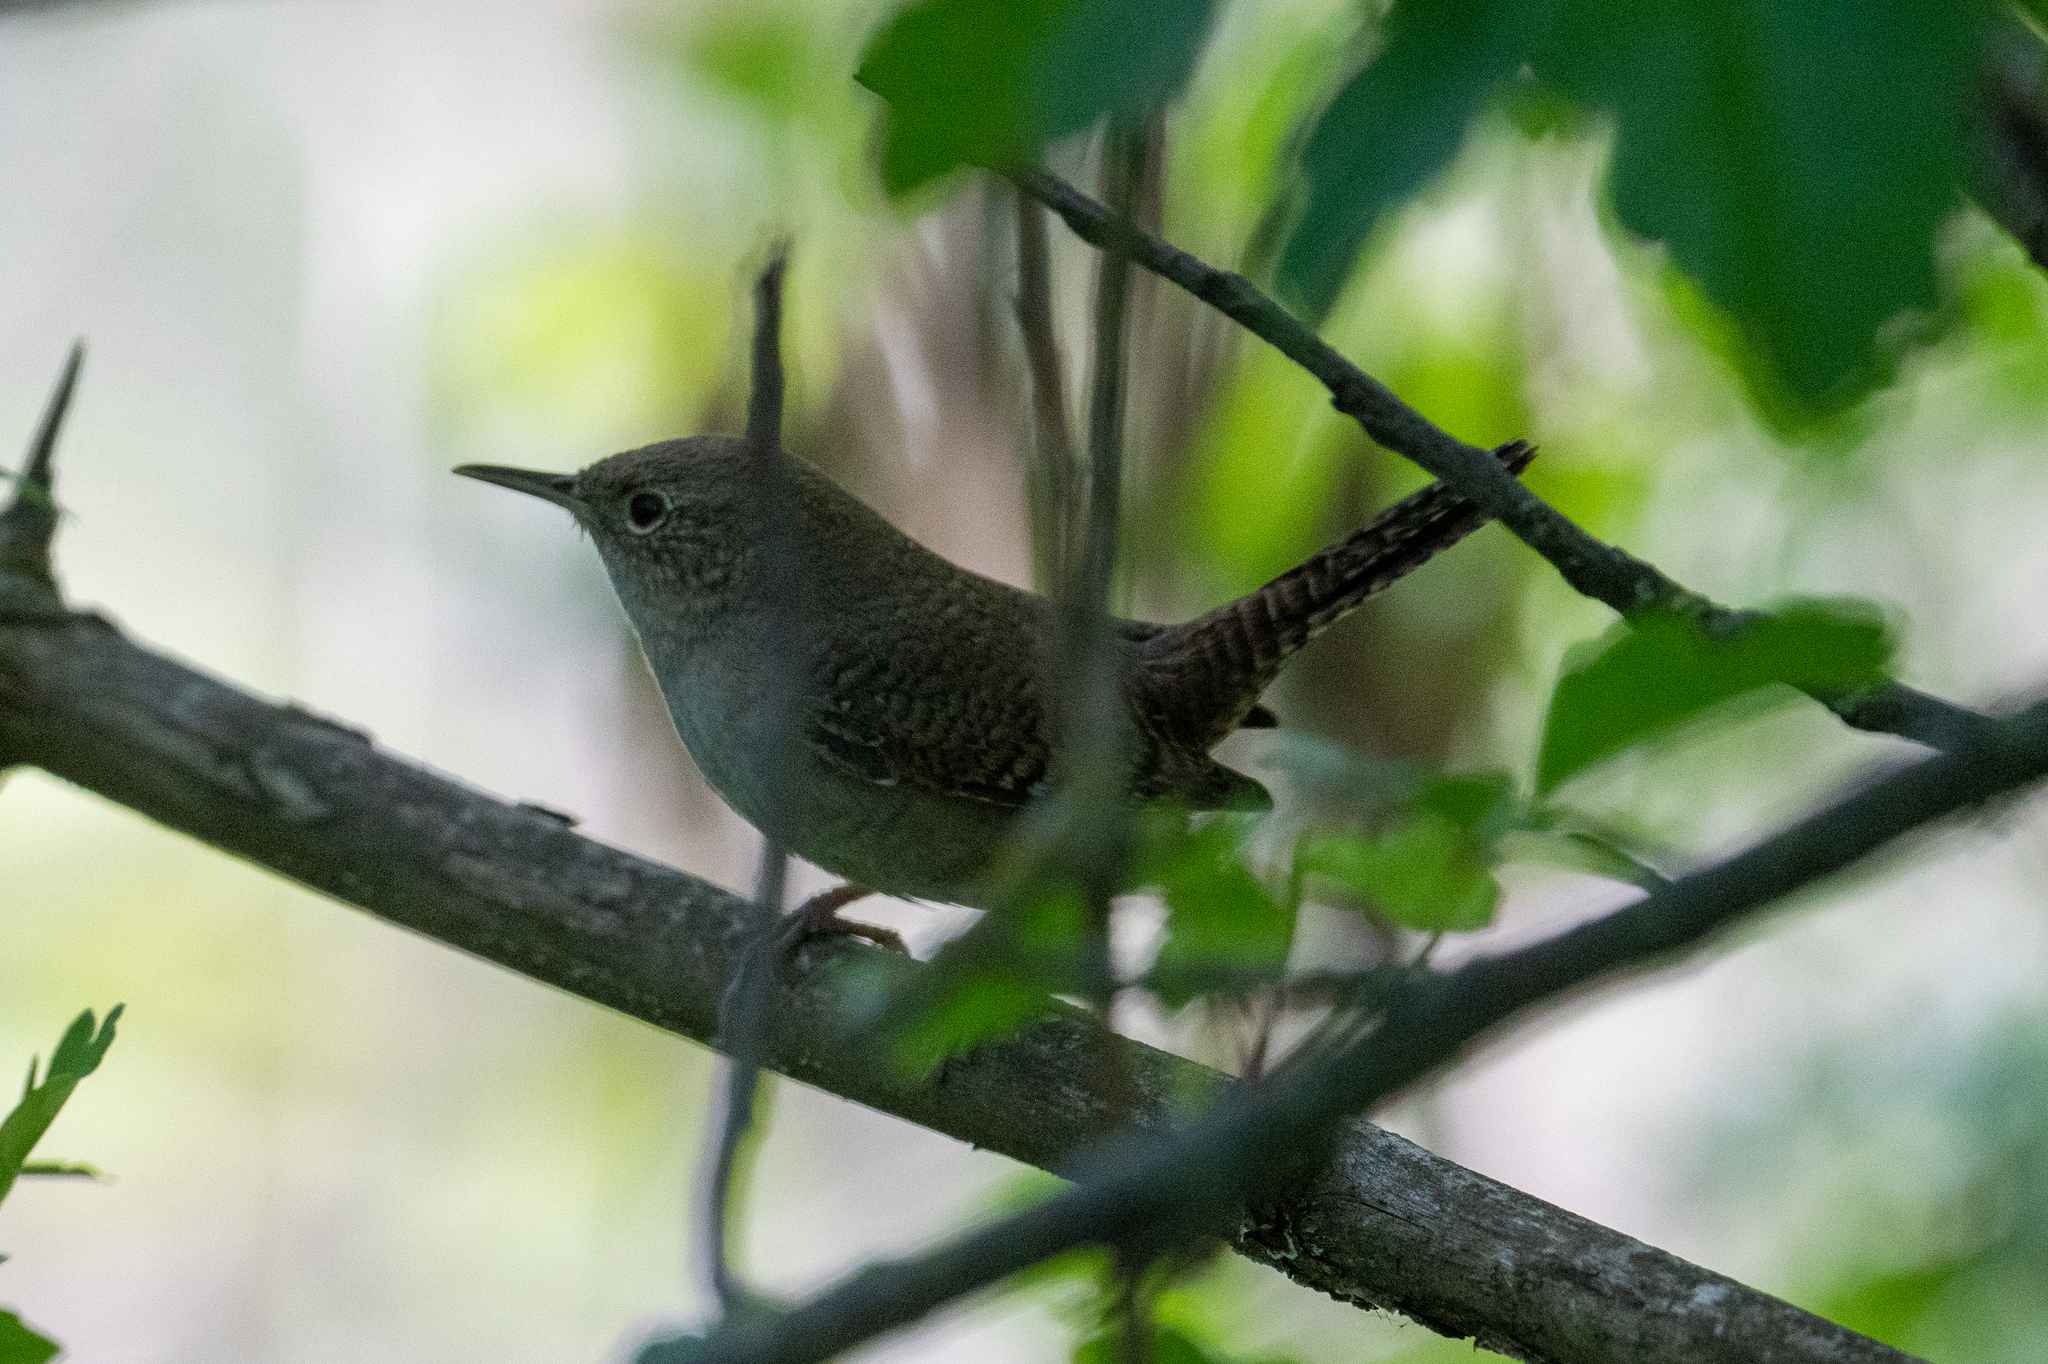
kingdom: Animalia
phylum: Chordata
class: Aves
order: Passeriformes
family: Troglodytidae
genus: Troglodytes
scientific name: Troglodytes aedon
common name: House wren
